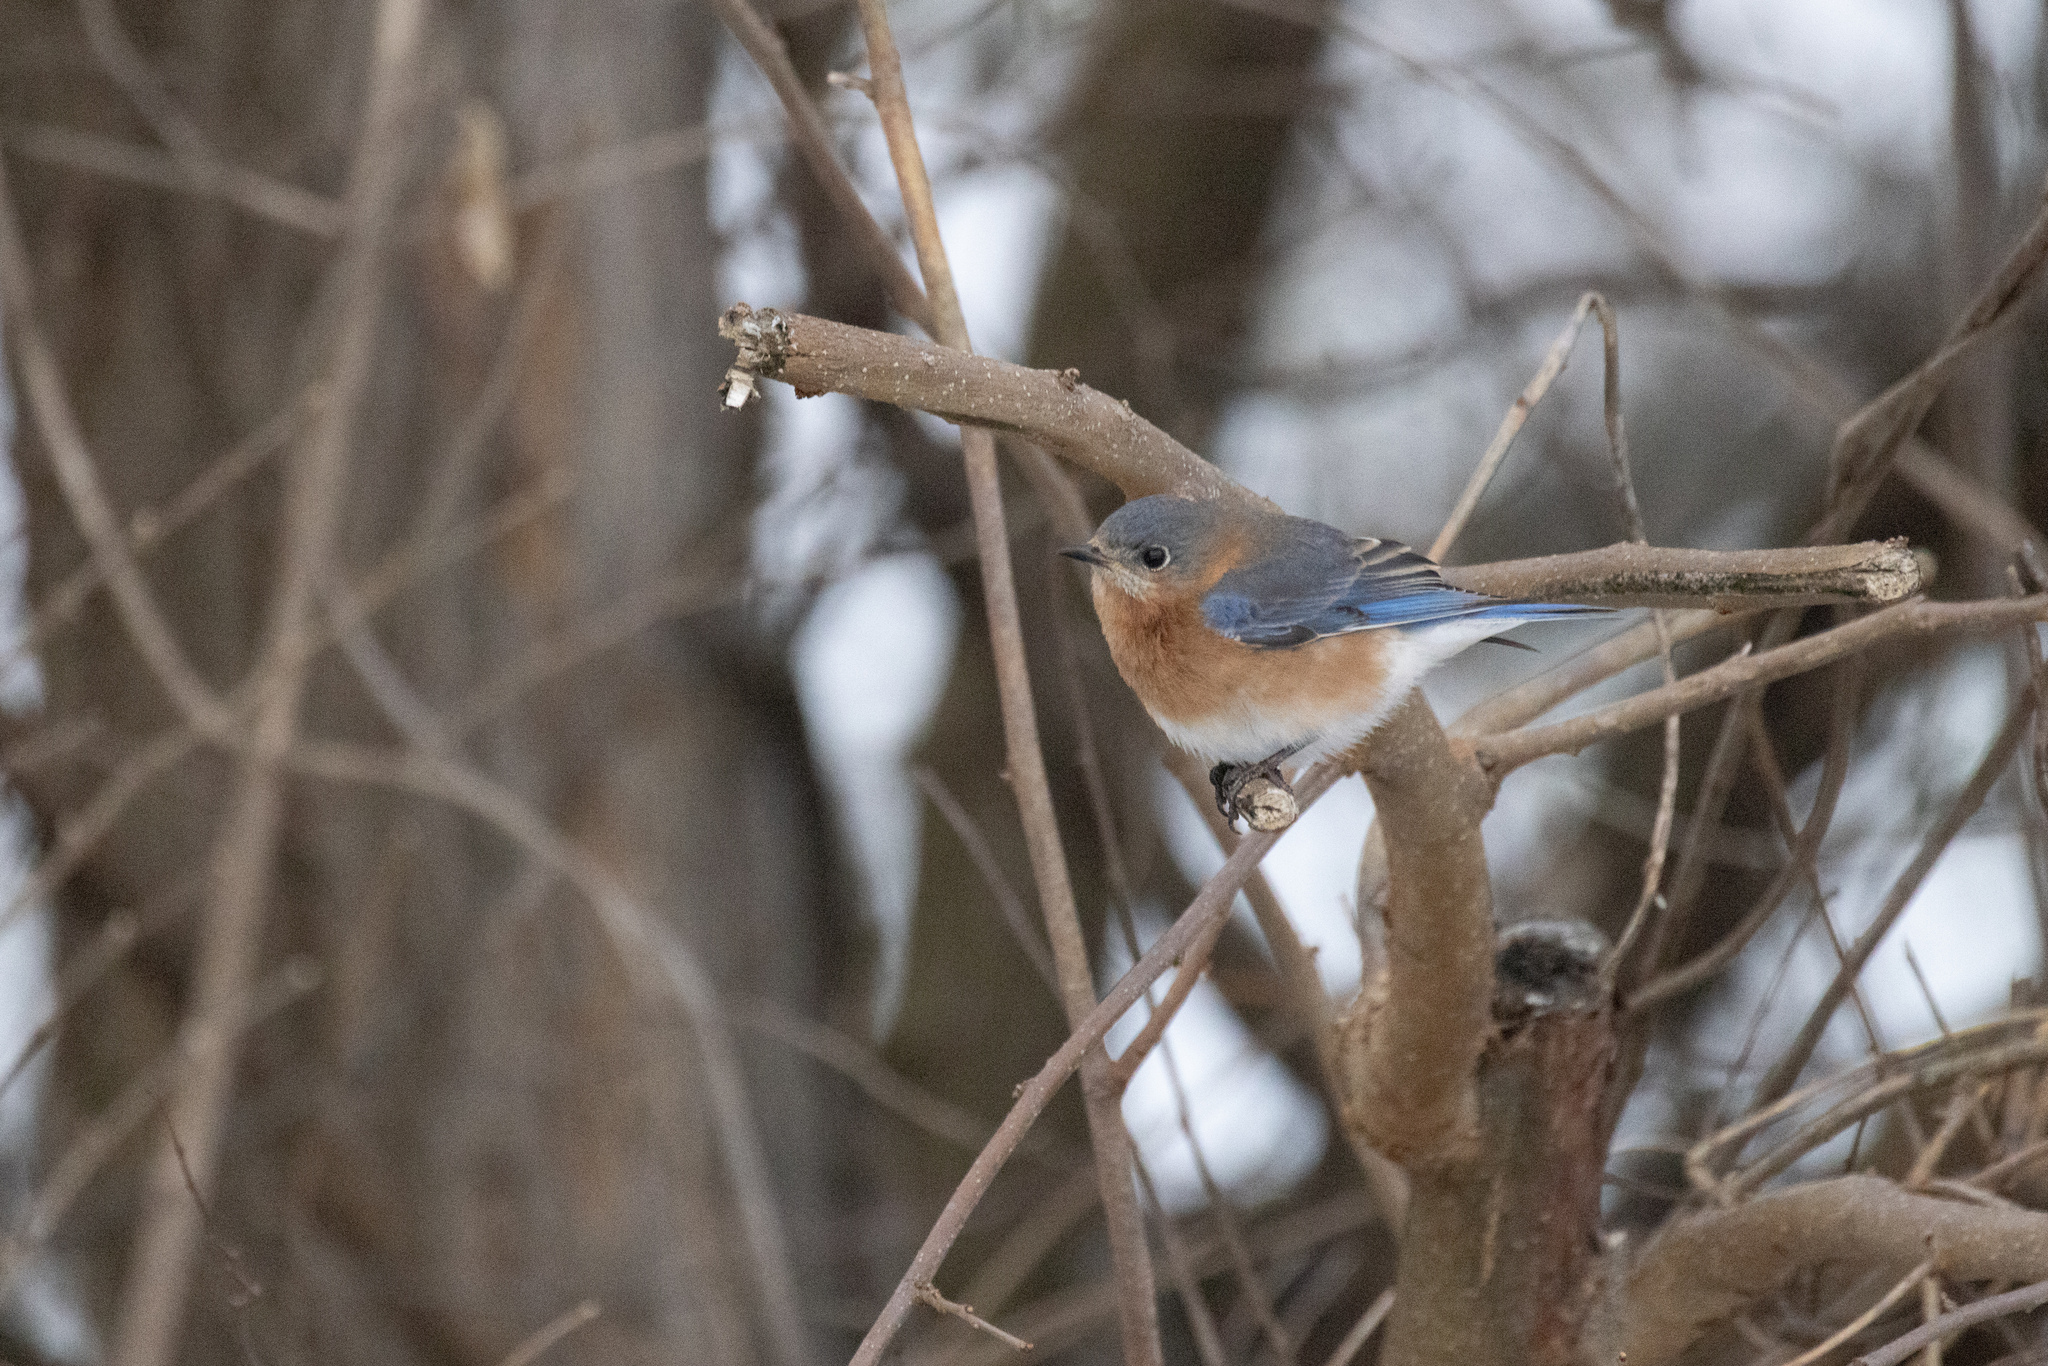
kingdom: Animalia
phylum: Chordata
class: Aves
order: Passeriformes
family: Turdidae
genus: Sialia
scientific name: Sialia sialis
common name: Eastern bluebird
